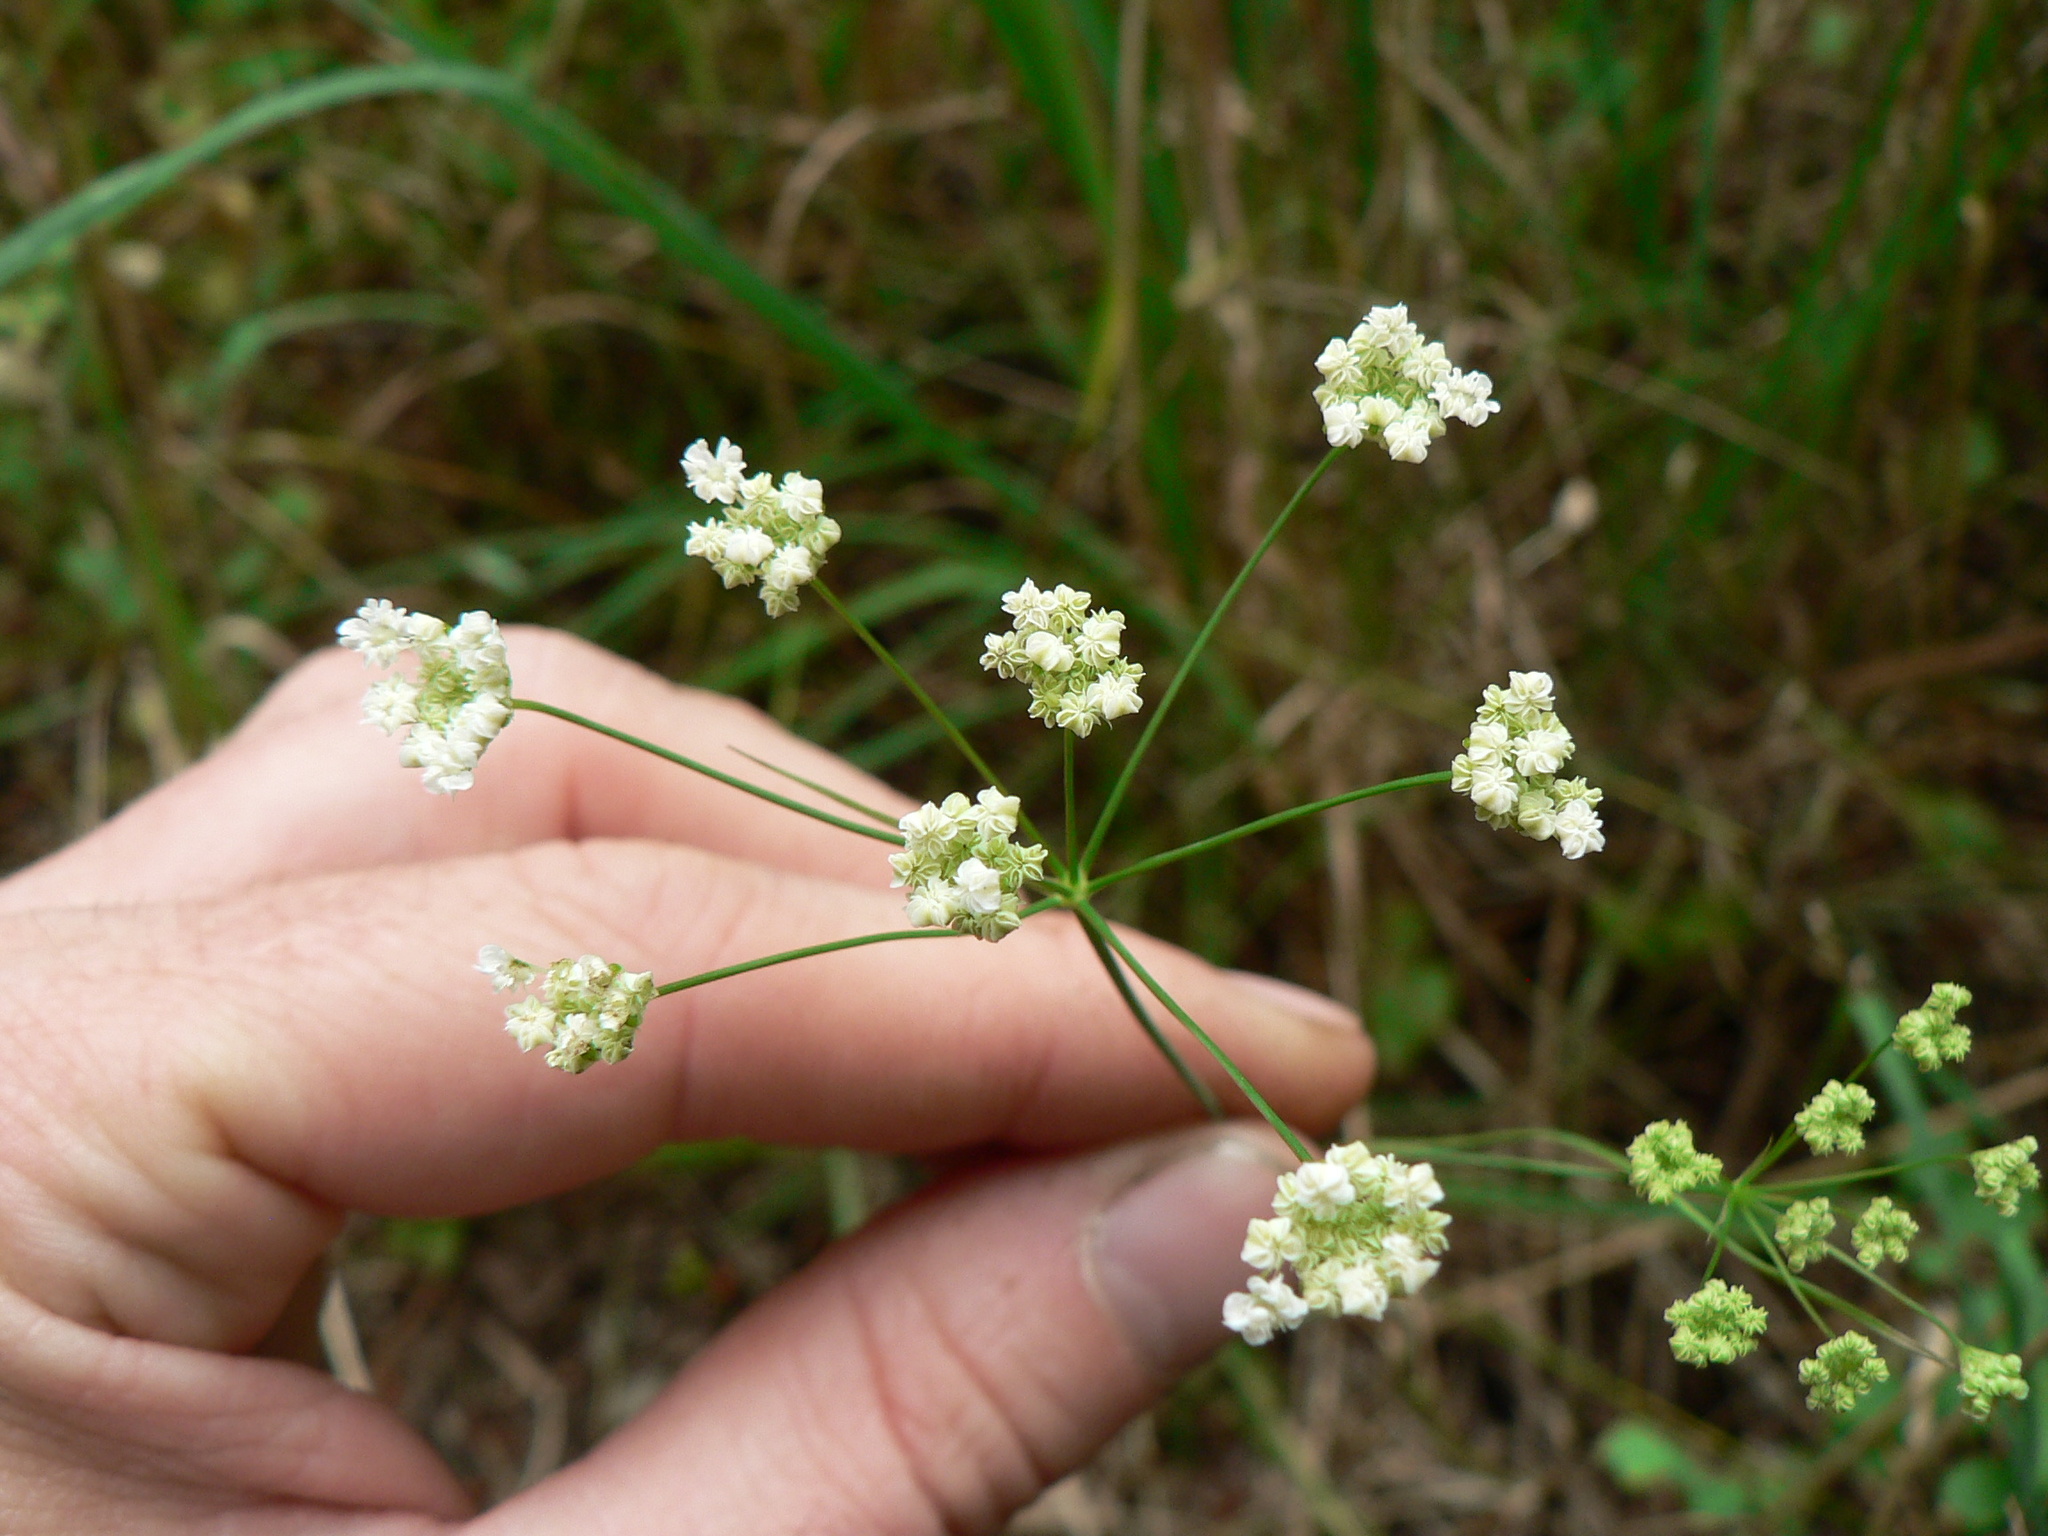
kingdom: Plantae
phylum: Tracheophyta
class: Magnoliopsida
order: Apiales
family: Apiaceae
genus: Perideridia
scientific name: Perideridia gairdneri
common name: False caraway
